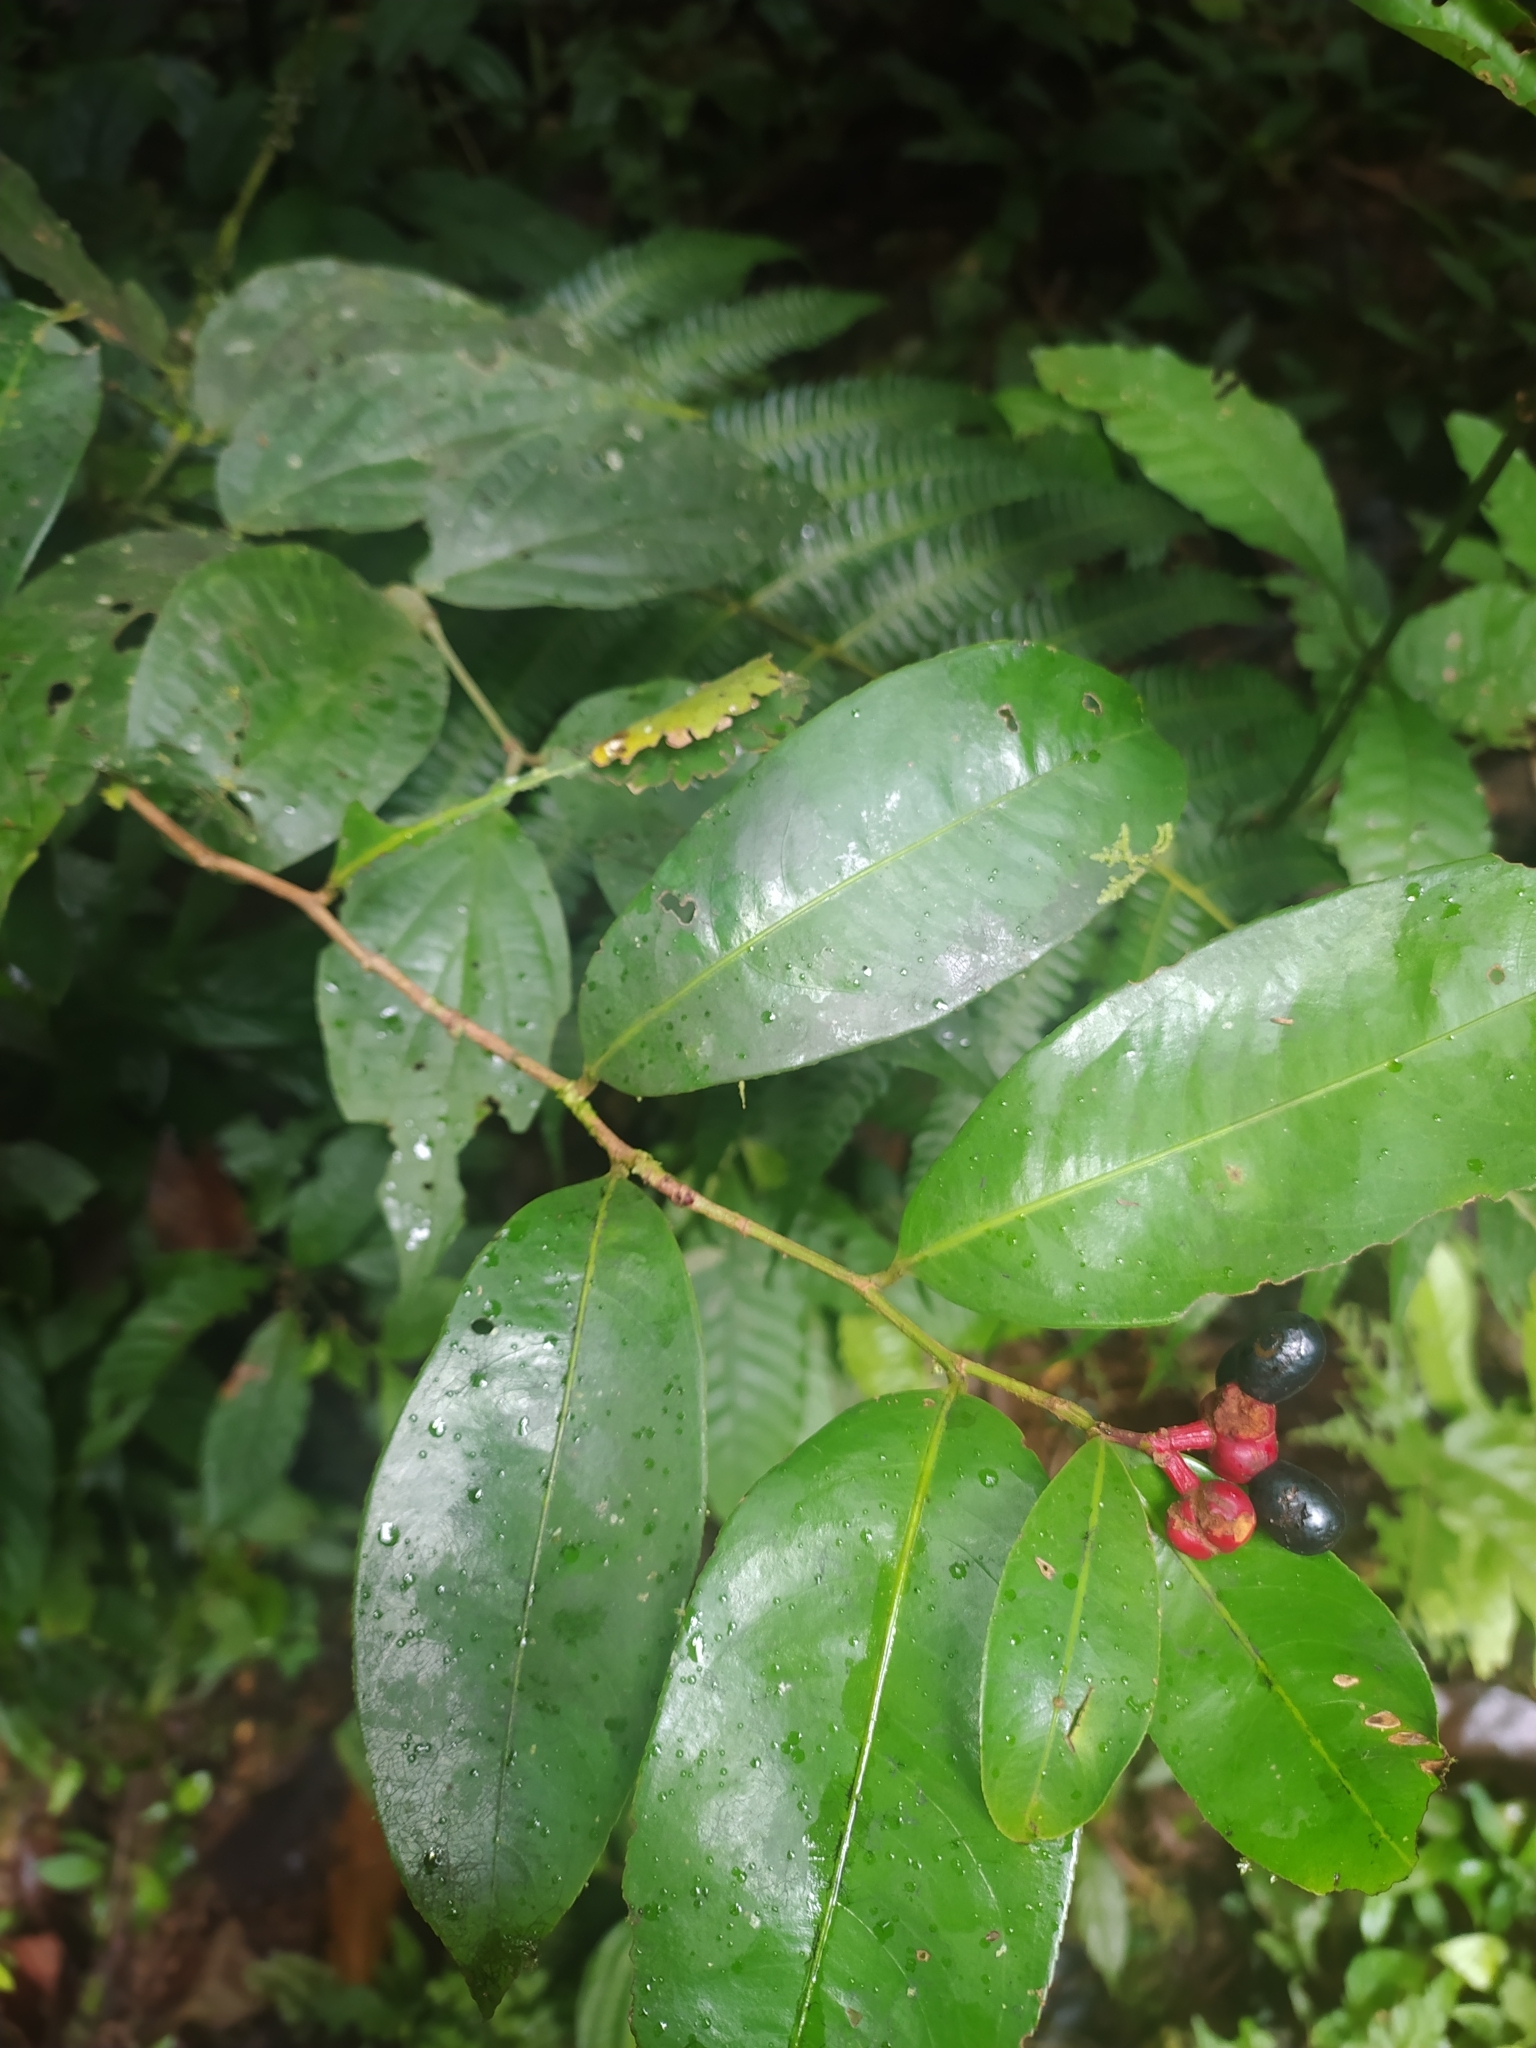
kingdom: Plantae
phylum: Tracheophyta
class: Magnoliopsida
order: Malpighiales
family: Ochnaceae
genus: Ouratea
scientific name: Ouratea
